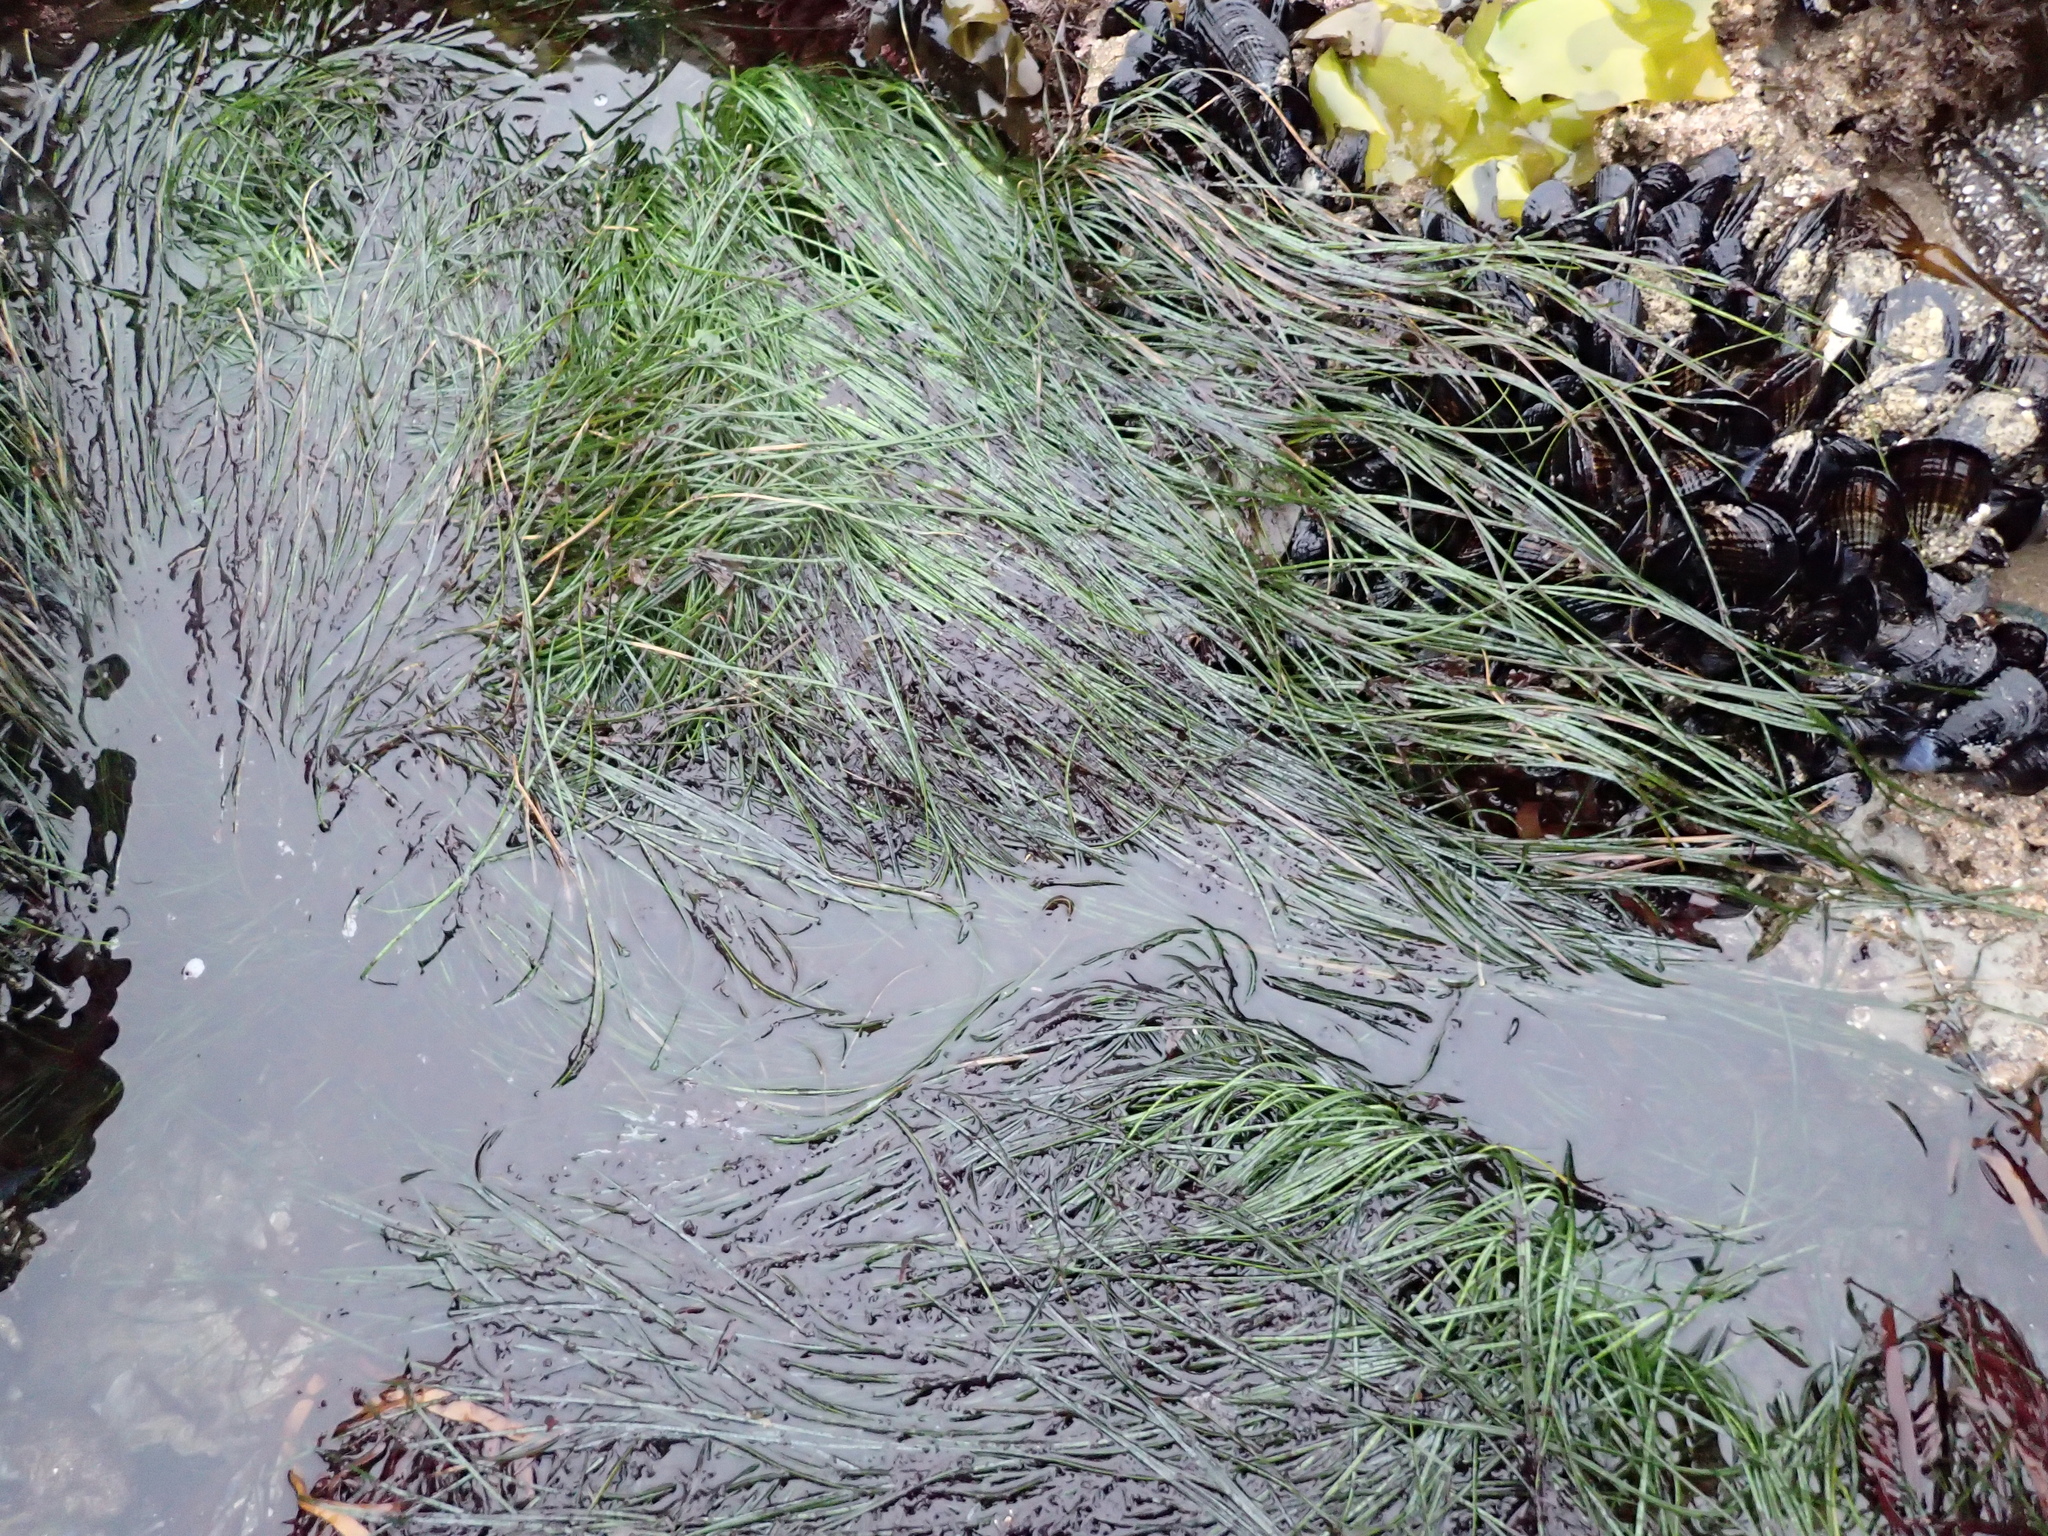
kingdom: Plantae
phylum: Tracheophyta
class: Liliopsida
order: Alismatales
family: Zosteraceae
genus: Phyllospadix
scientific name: Phyllospadix torreyi
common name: Surfgrass
